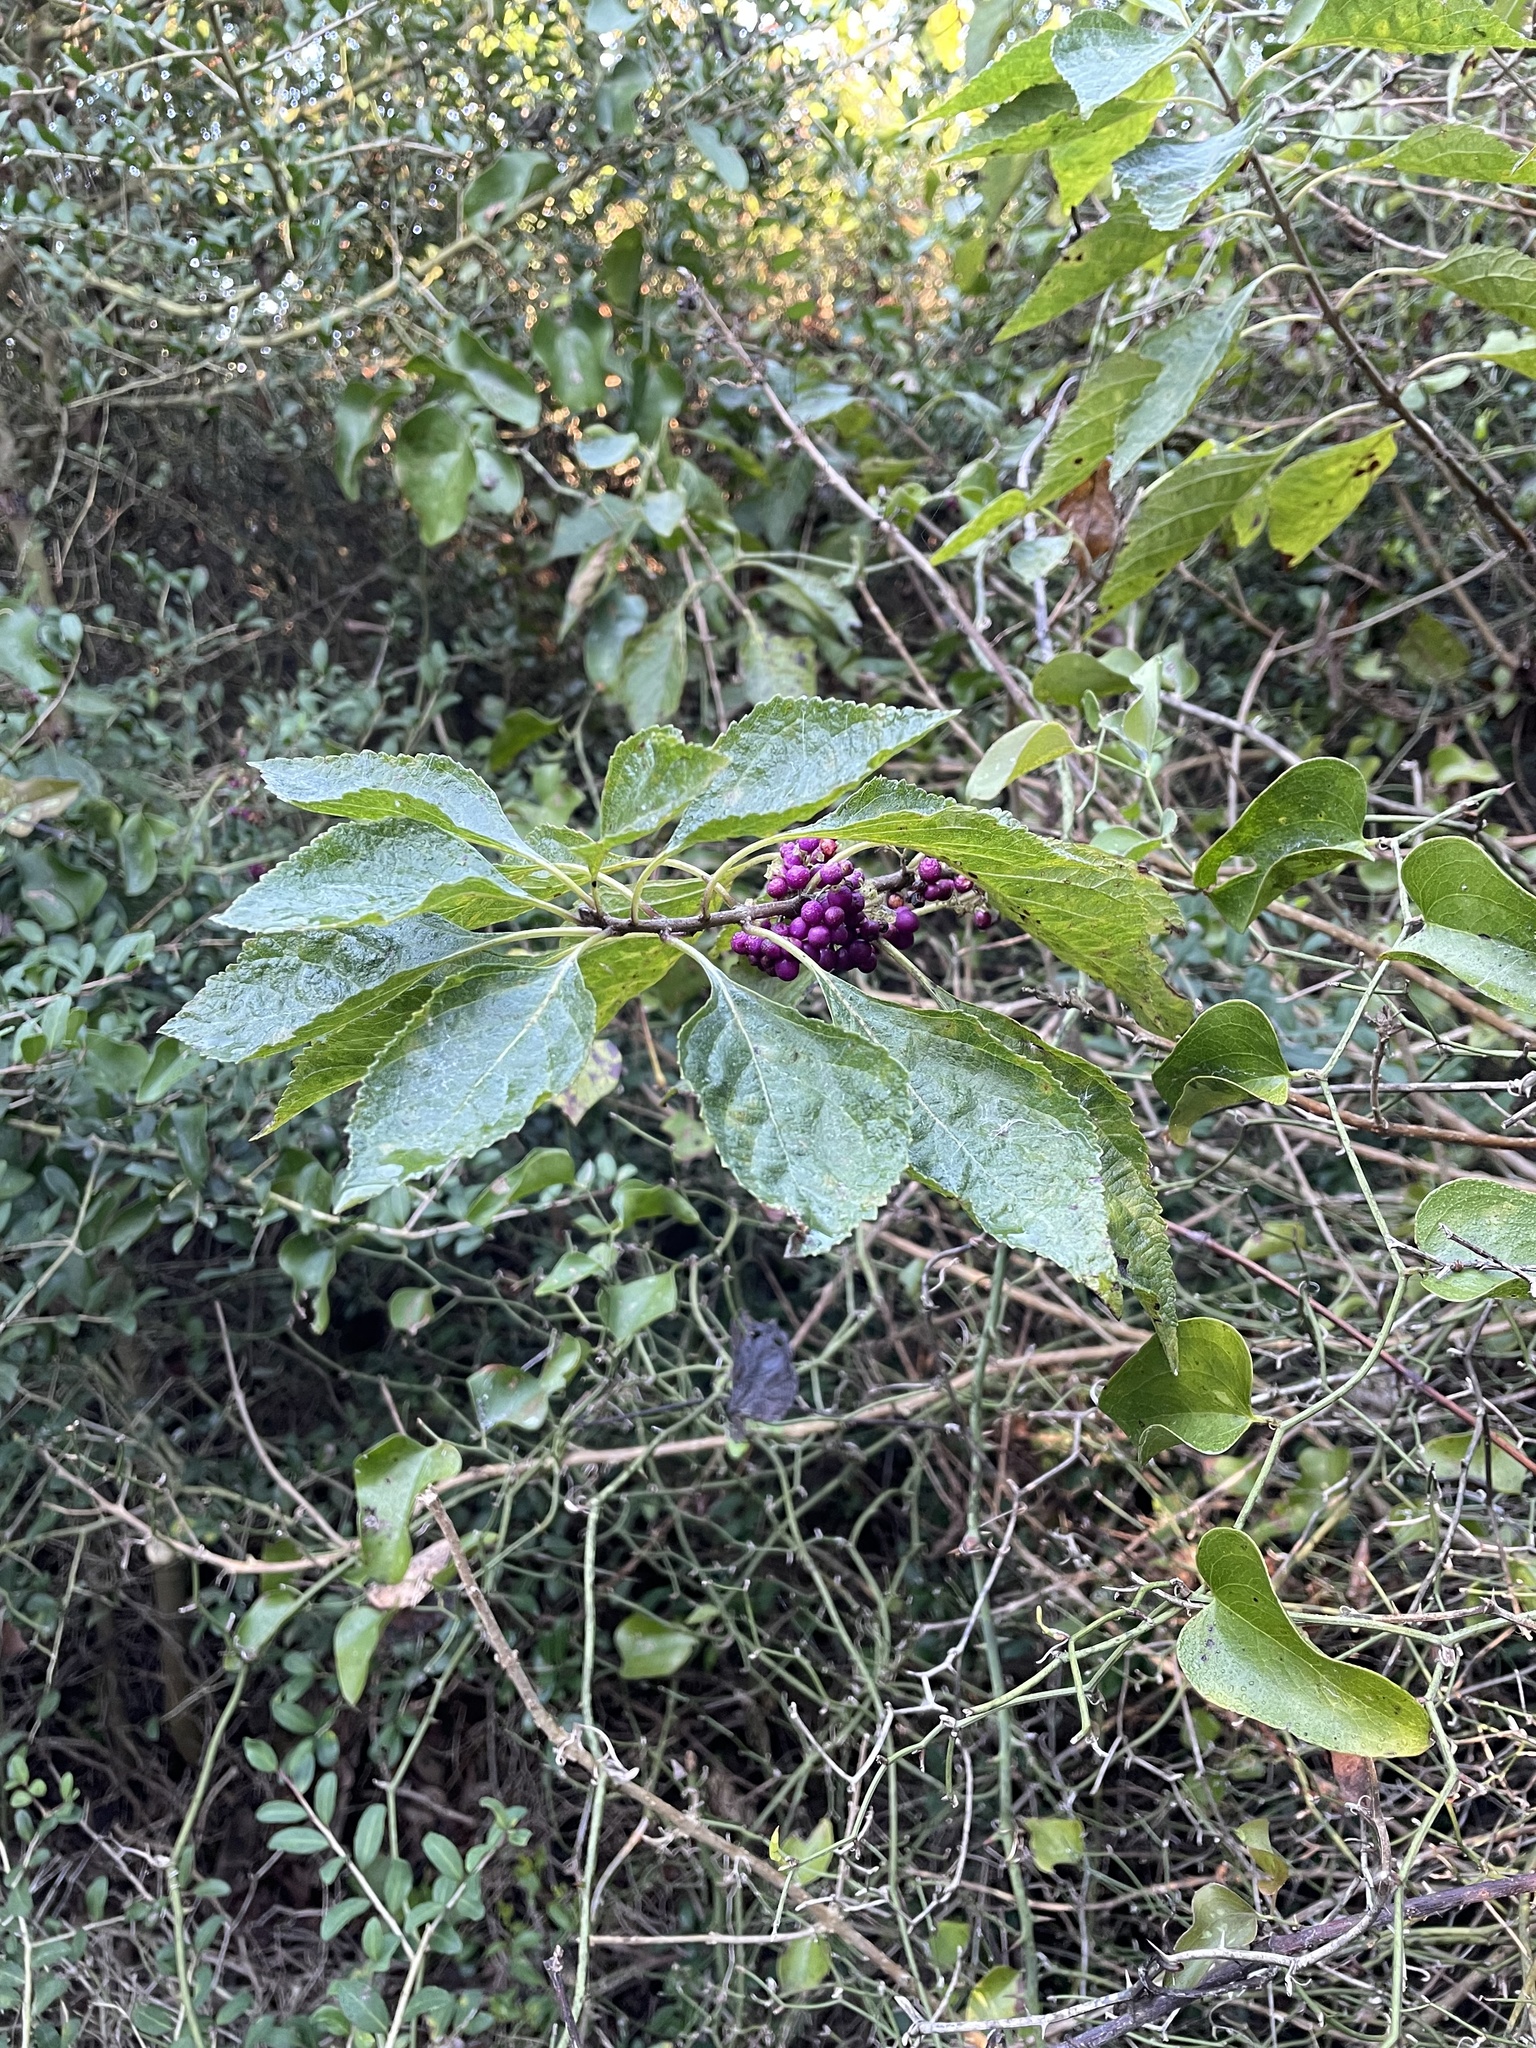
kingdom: Plantae
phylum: Tracheophyta
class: Magnoliopsida
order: Lamiales
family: Lamiaceae
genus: Callicarpa
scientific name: Callicarpa americana
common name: American beautyberry
